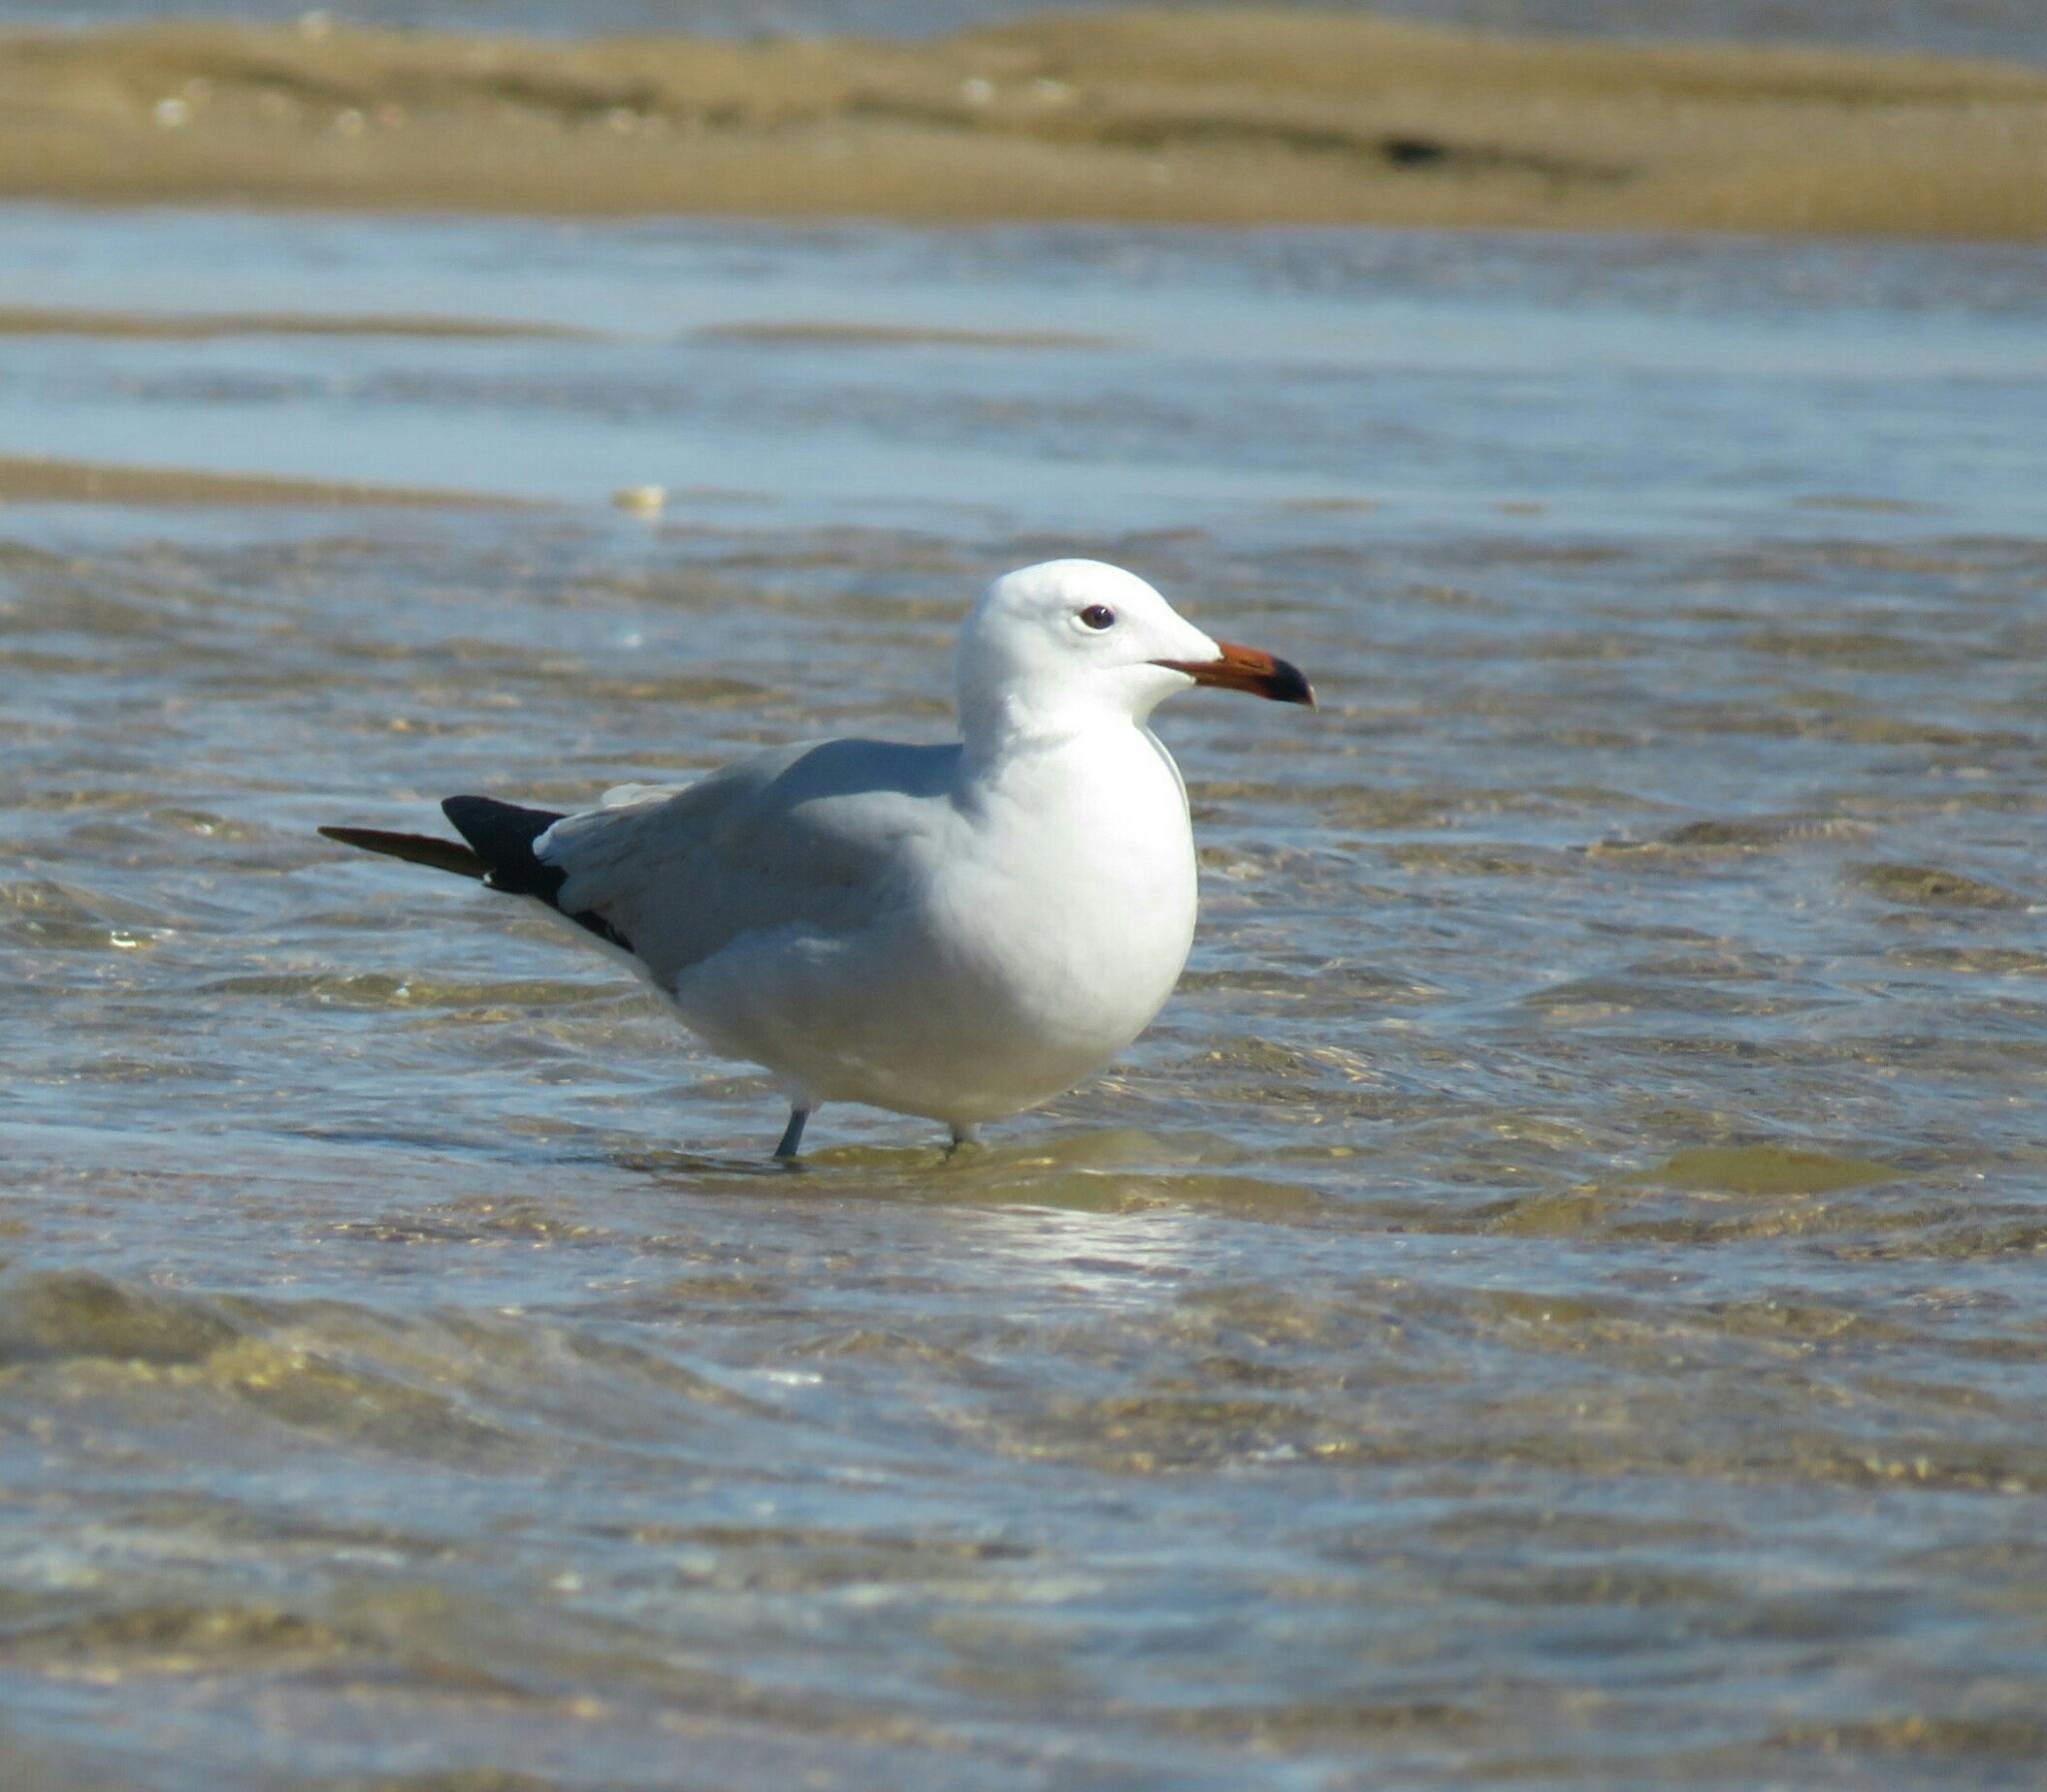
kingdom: Animalia
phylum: Chordata
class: Aves
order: Charadriiformes
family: Laridae
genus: Ichthyaetus
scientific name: Ichthyaetus audouinii
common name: Audouin's gull
